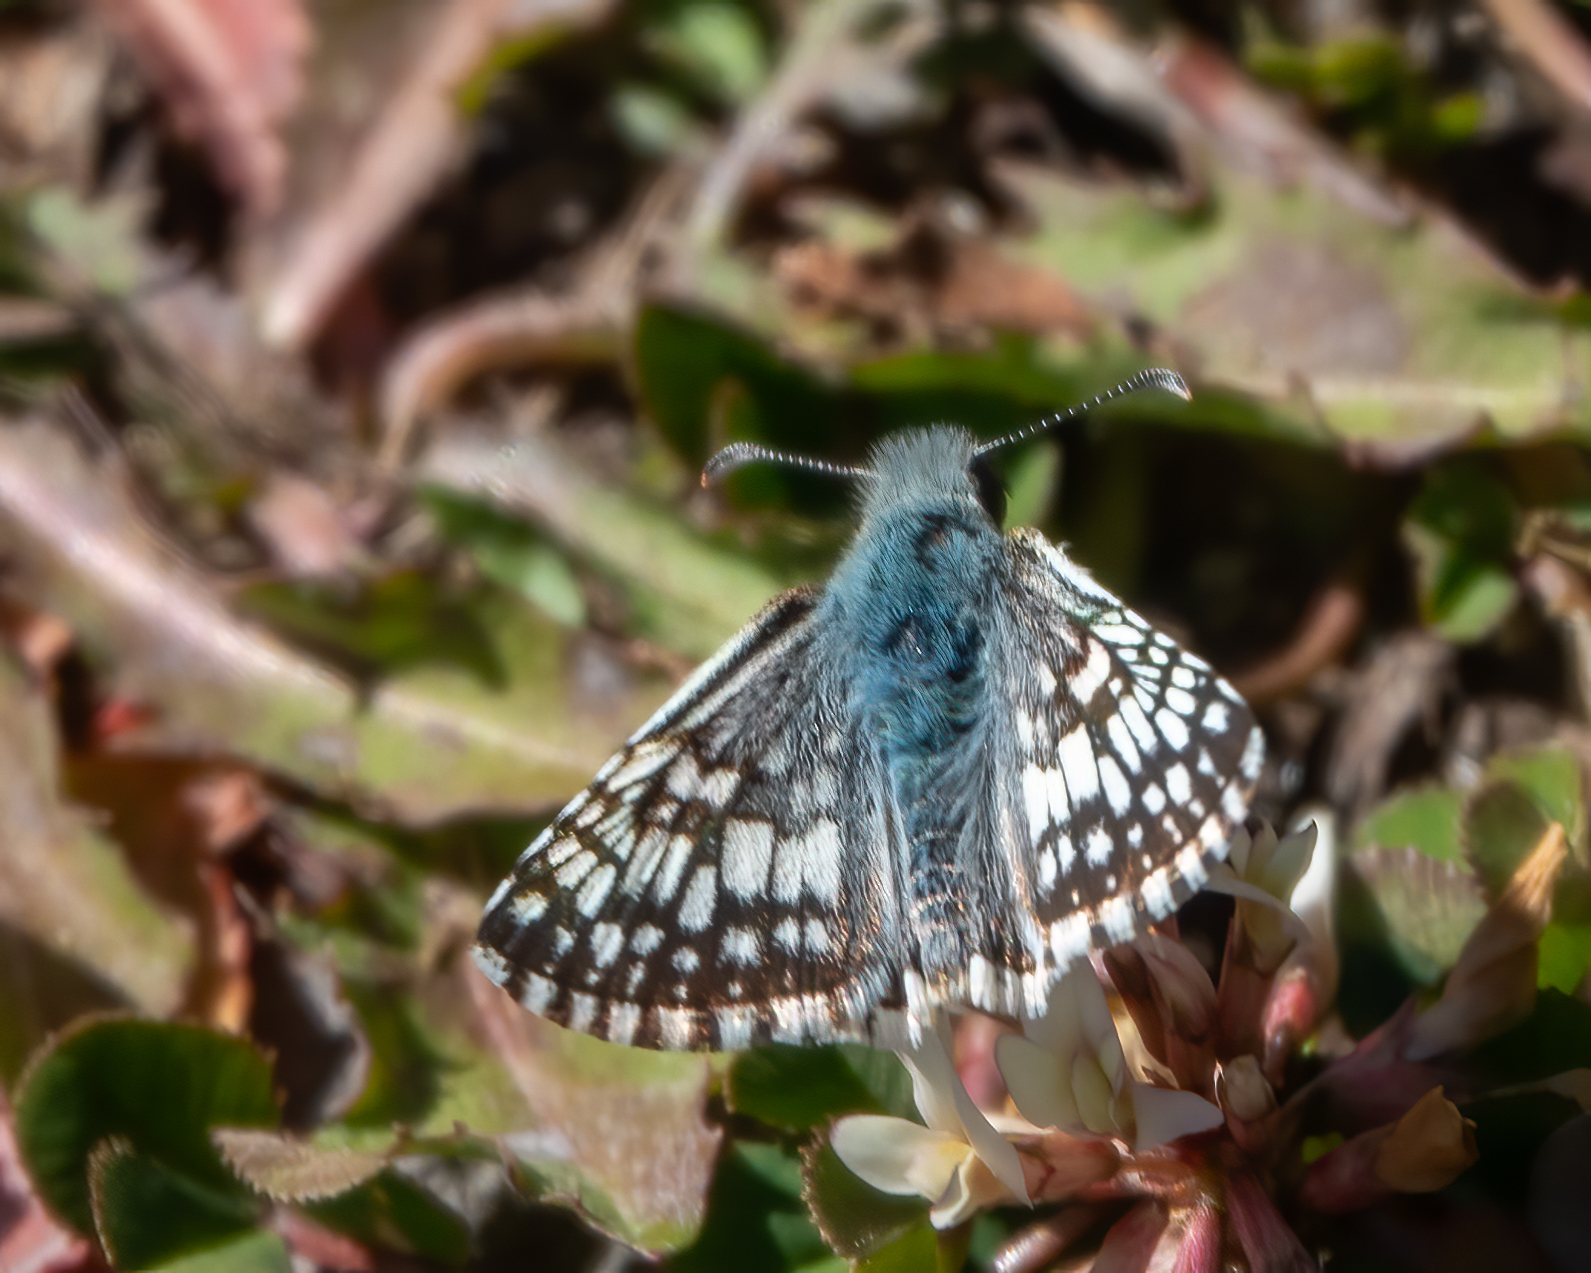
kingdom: Animalia
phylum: Arthropoda
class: Insecta
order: Lepidoptera
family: Hesperiidae
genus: Burnsius
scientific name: Burnsius communis
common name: Common checkered-skipper
